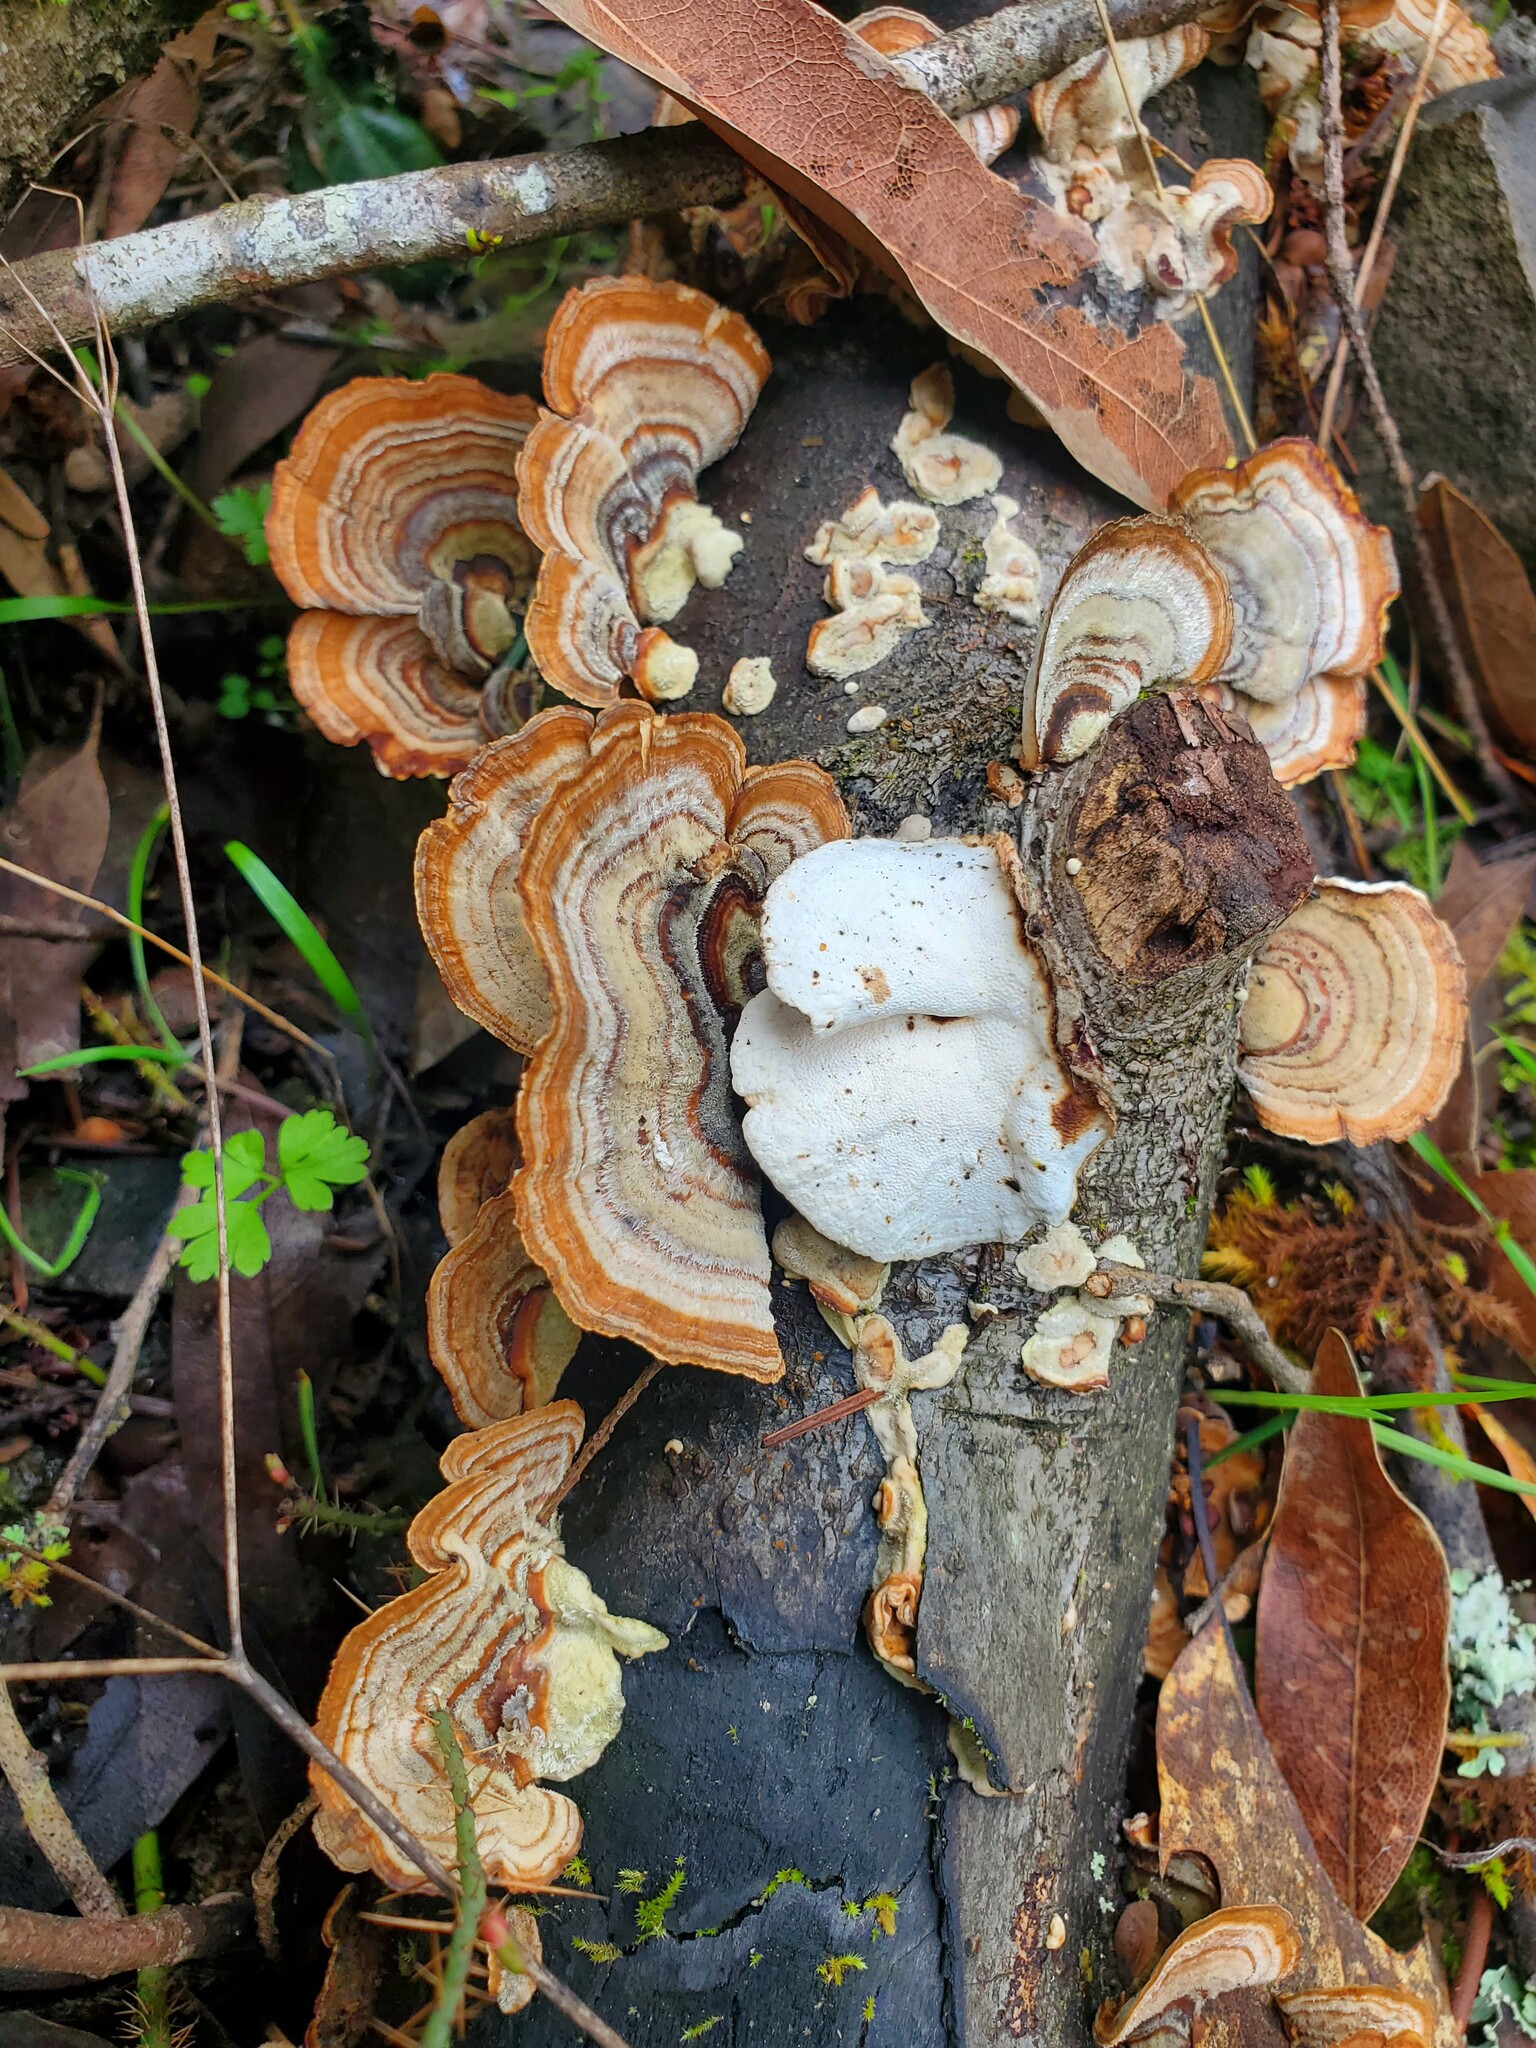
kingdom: Fungi
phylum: Basidiomycota
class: Agaricomycetes
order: Polyporales
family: Polyporaceae
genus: Trametes
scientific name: Trametes versicolor
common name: Turkeytail
